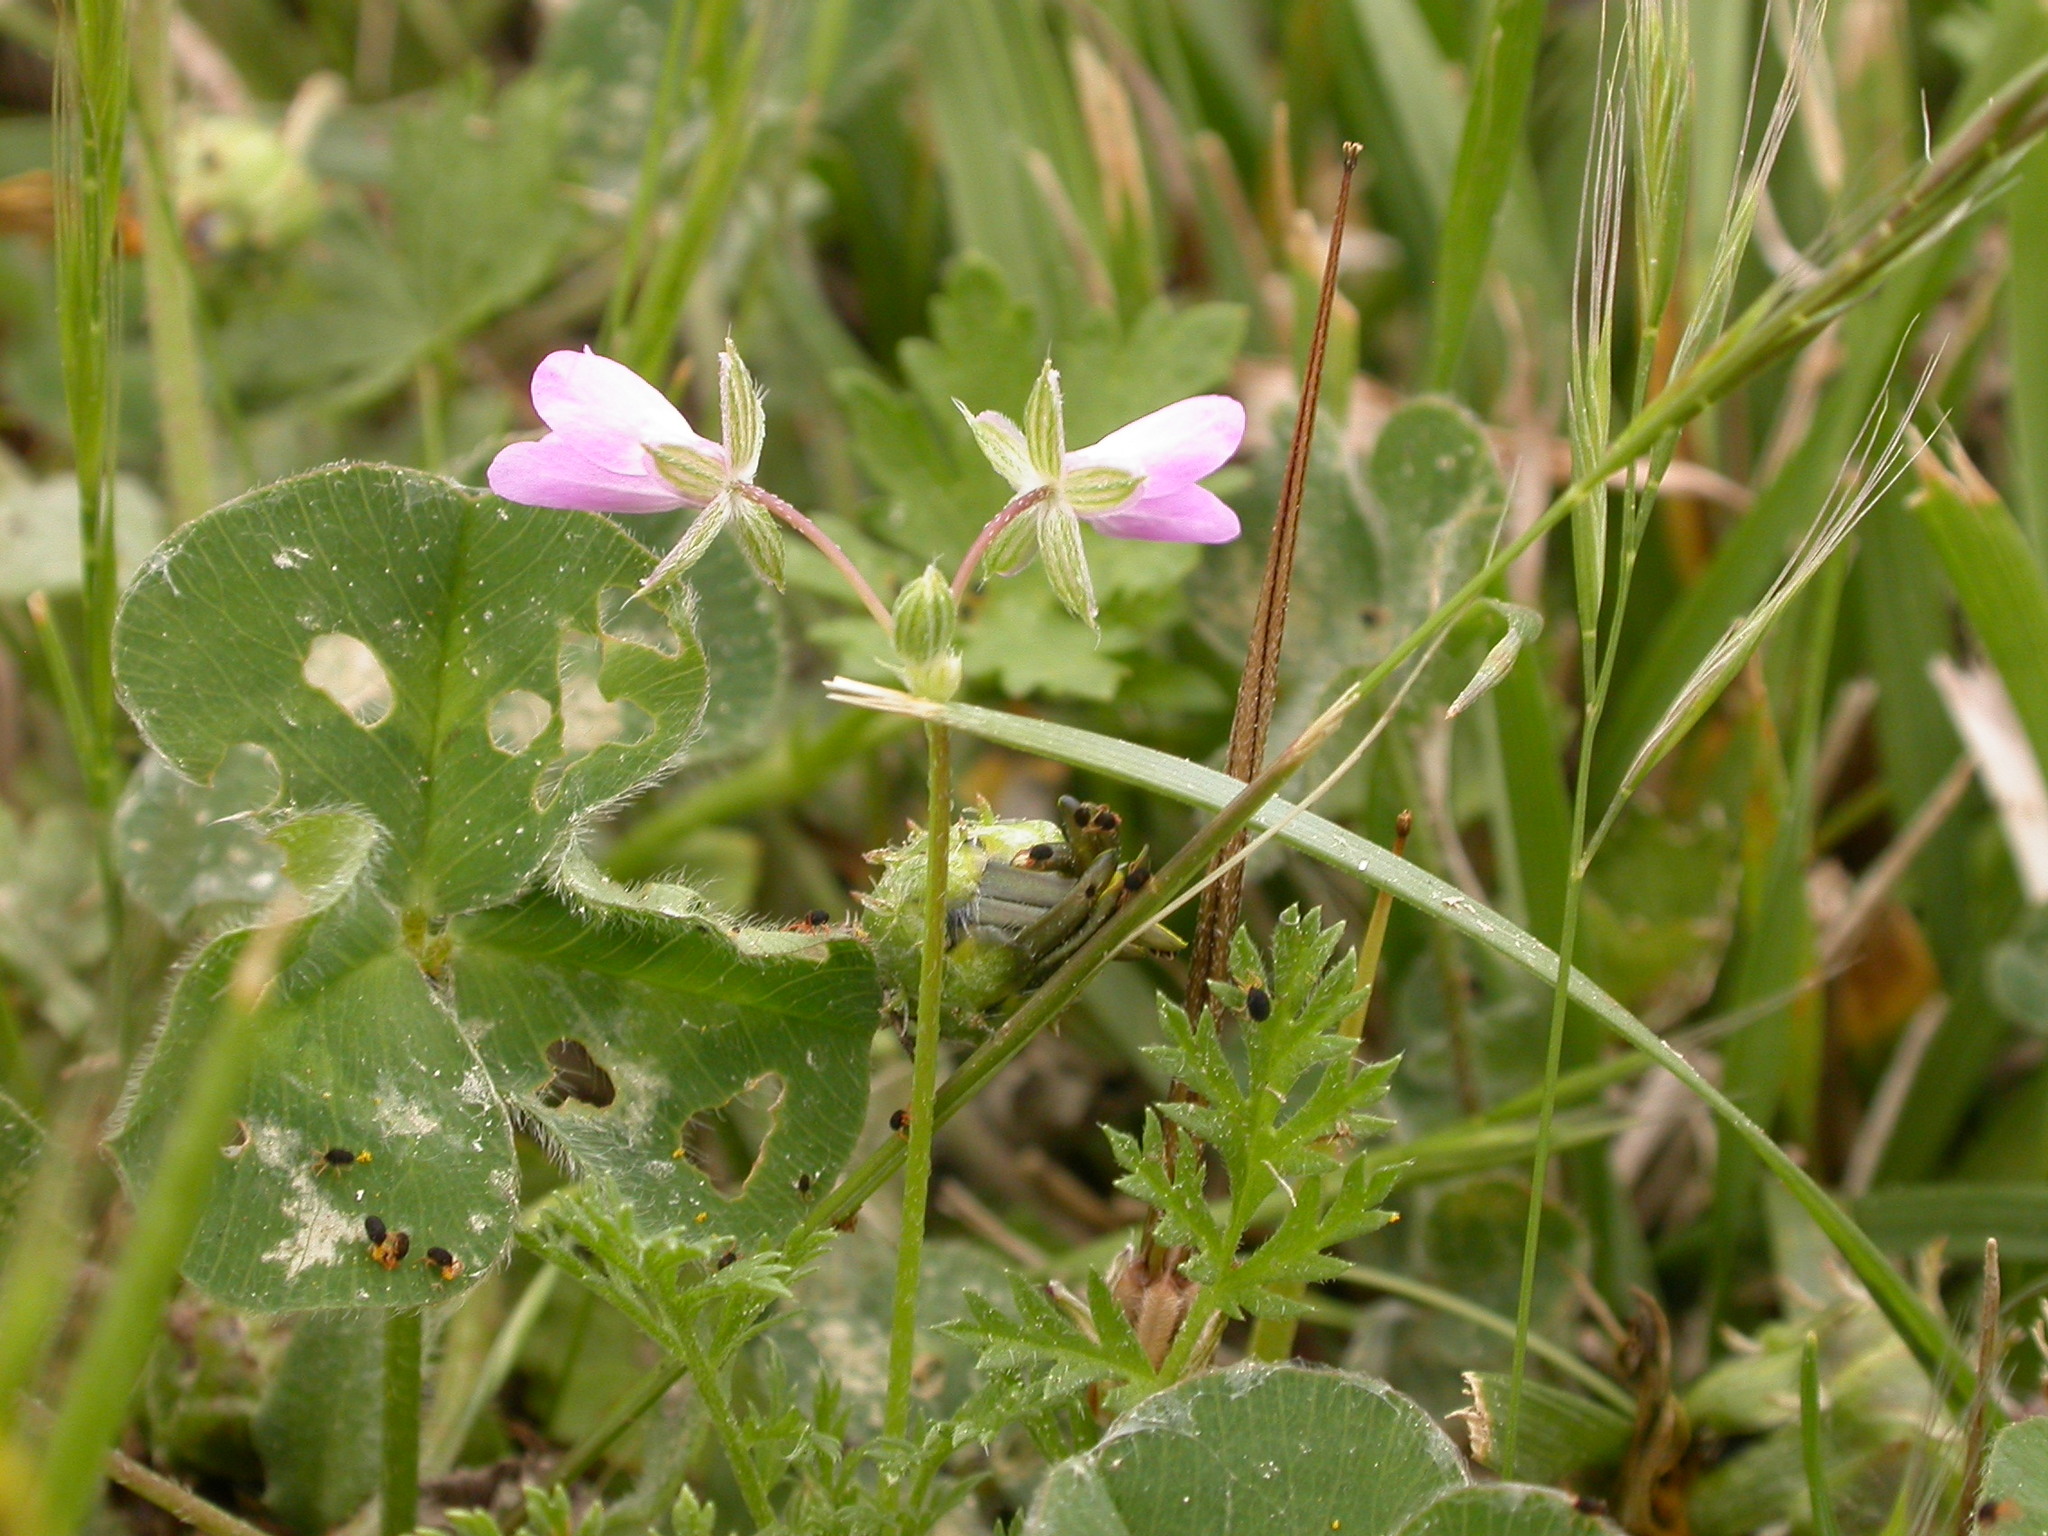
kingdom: Plantae
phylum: Tracheophyta
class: Magnoliopsida
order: Geraniales
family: Geraniaceae
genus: Erodium
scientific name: Erodium cicutarium
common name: Common stork's-bill
